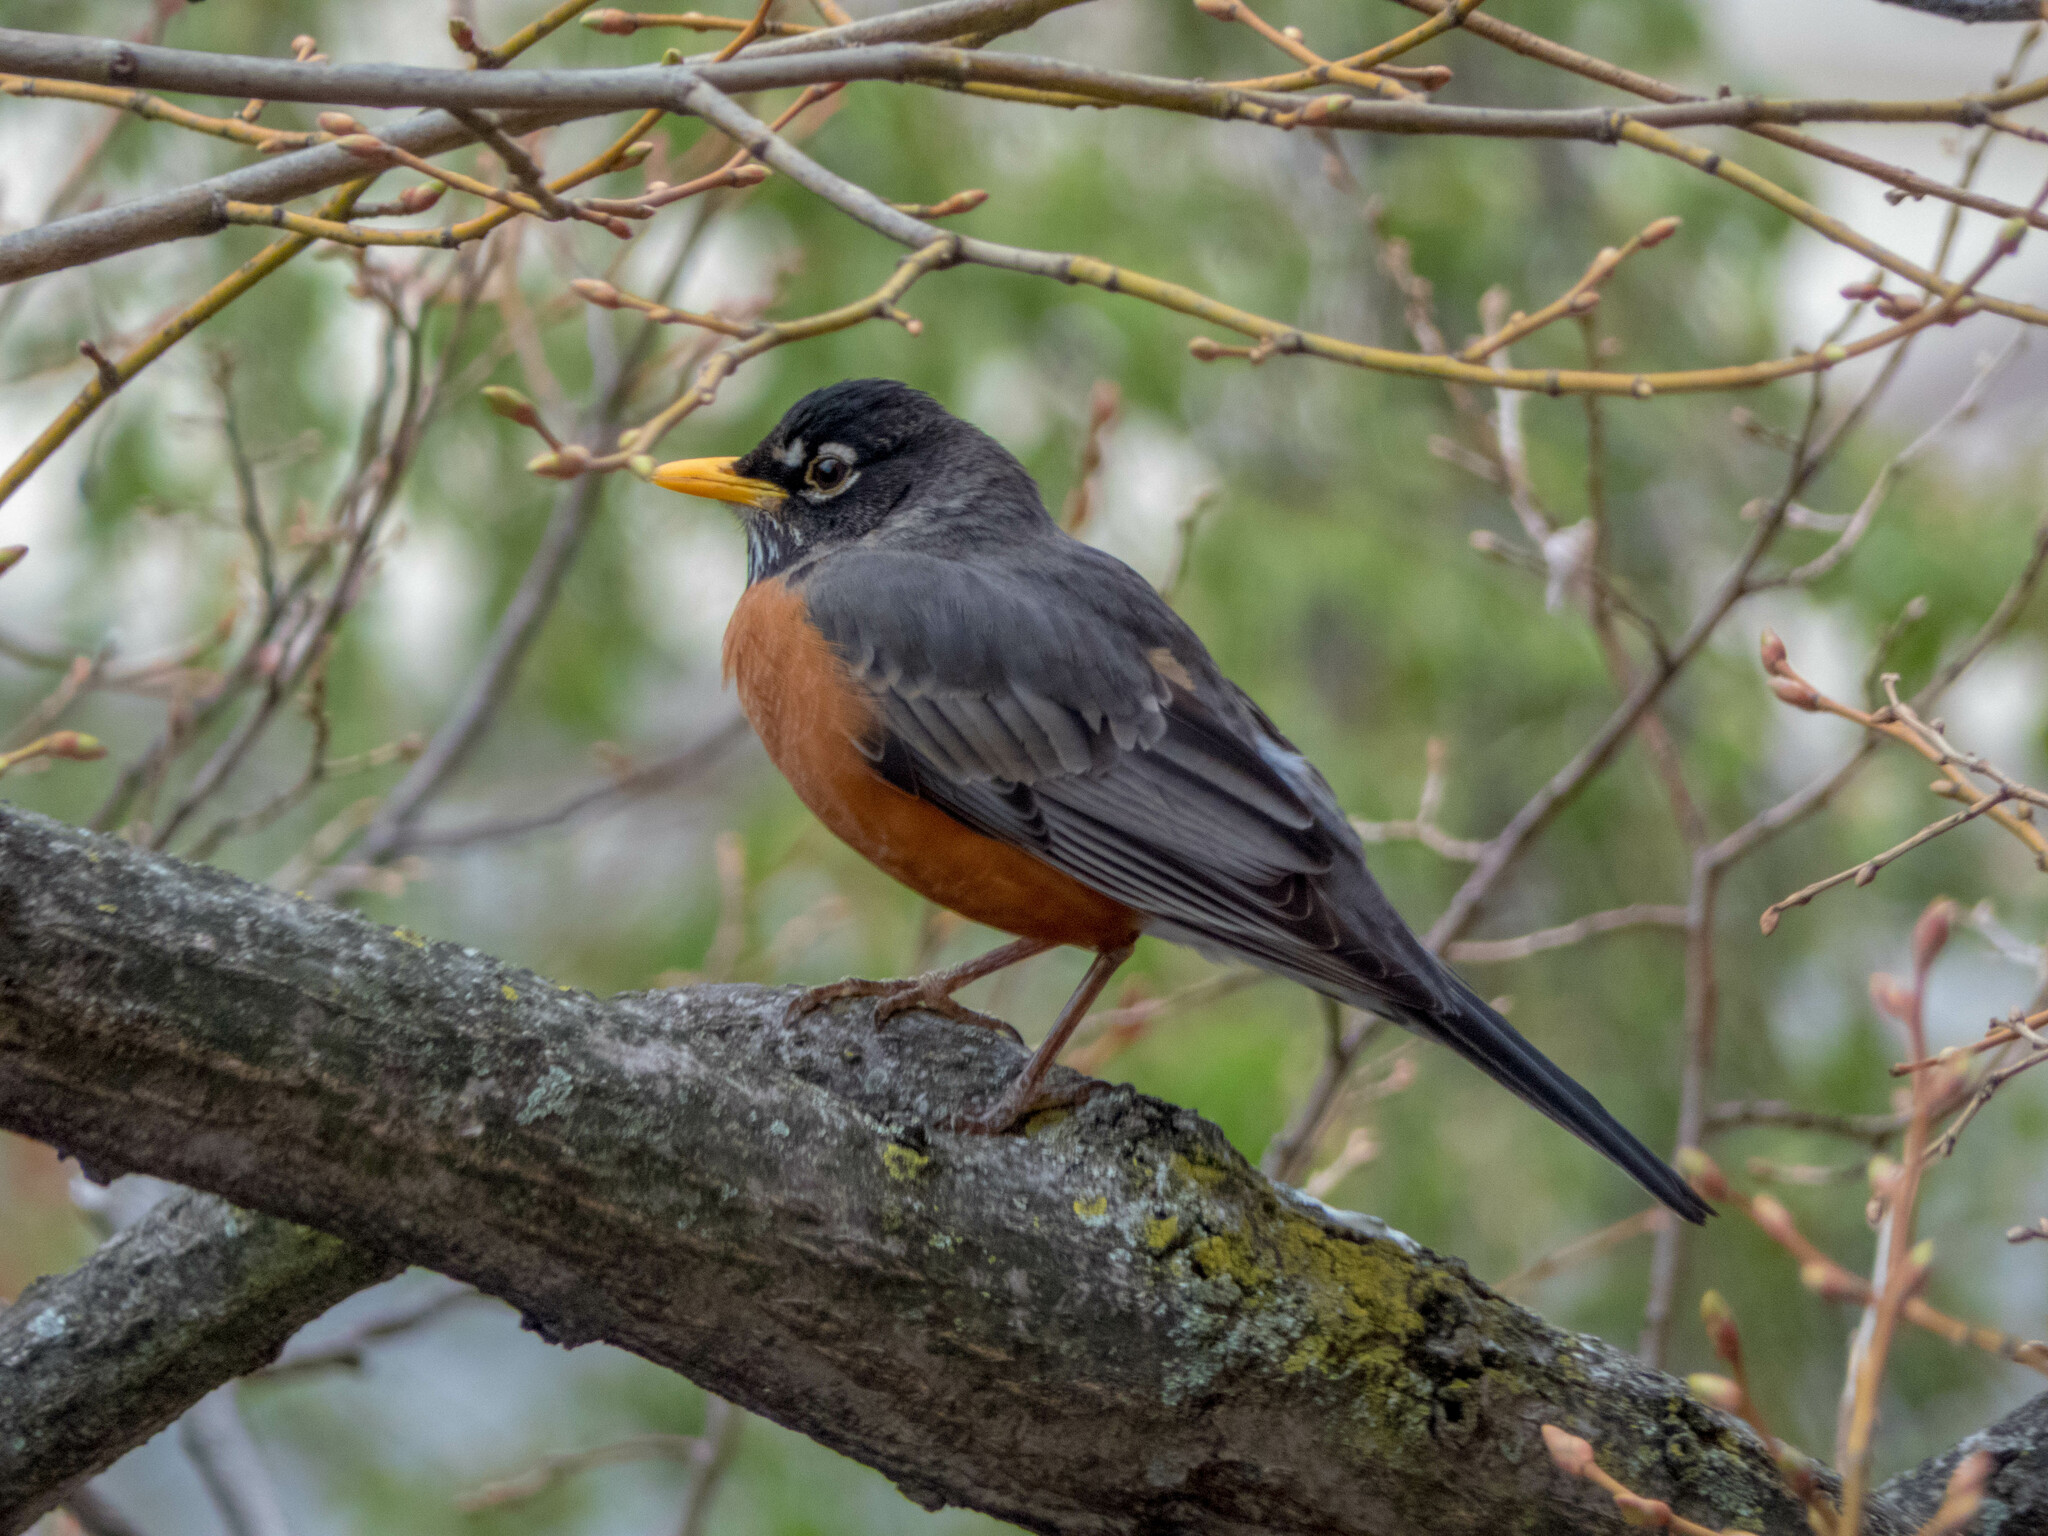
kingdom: Animalia
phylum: Chordata
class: Aves
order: Passeriformes
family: Turdidae
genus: Turdus
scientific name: Turdus migratorius
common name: American robin
